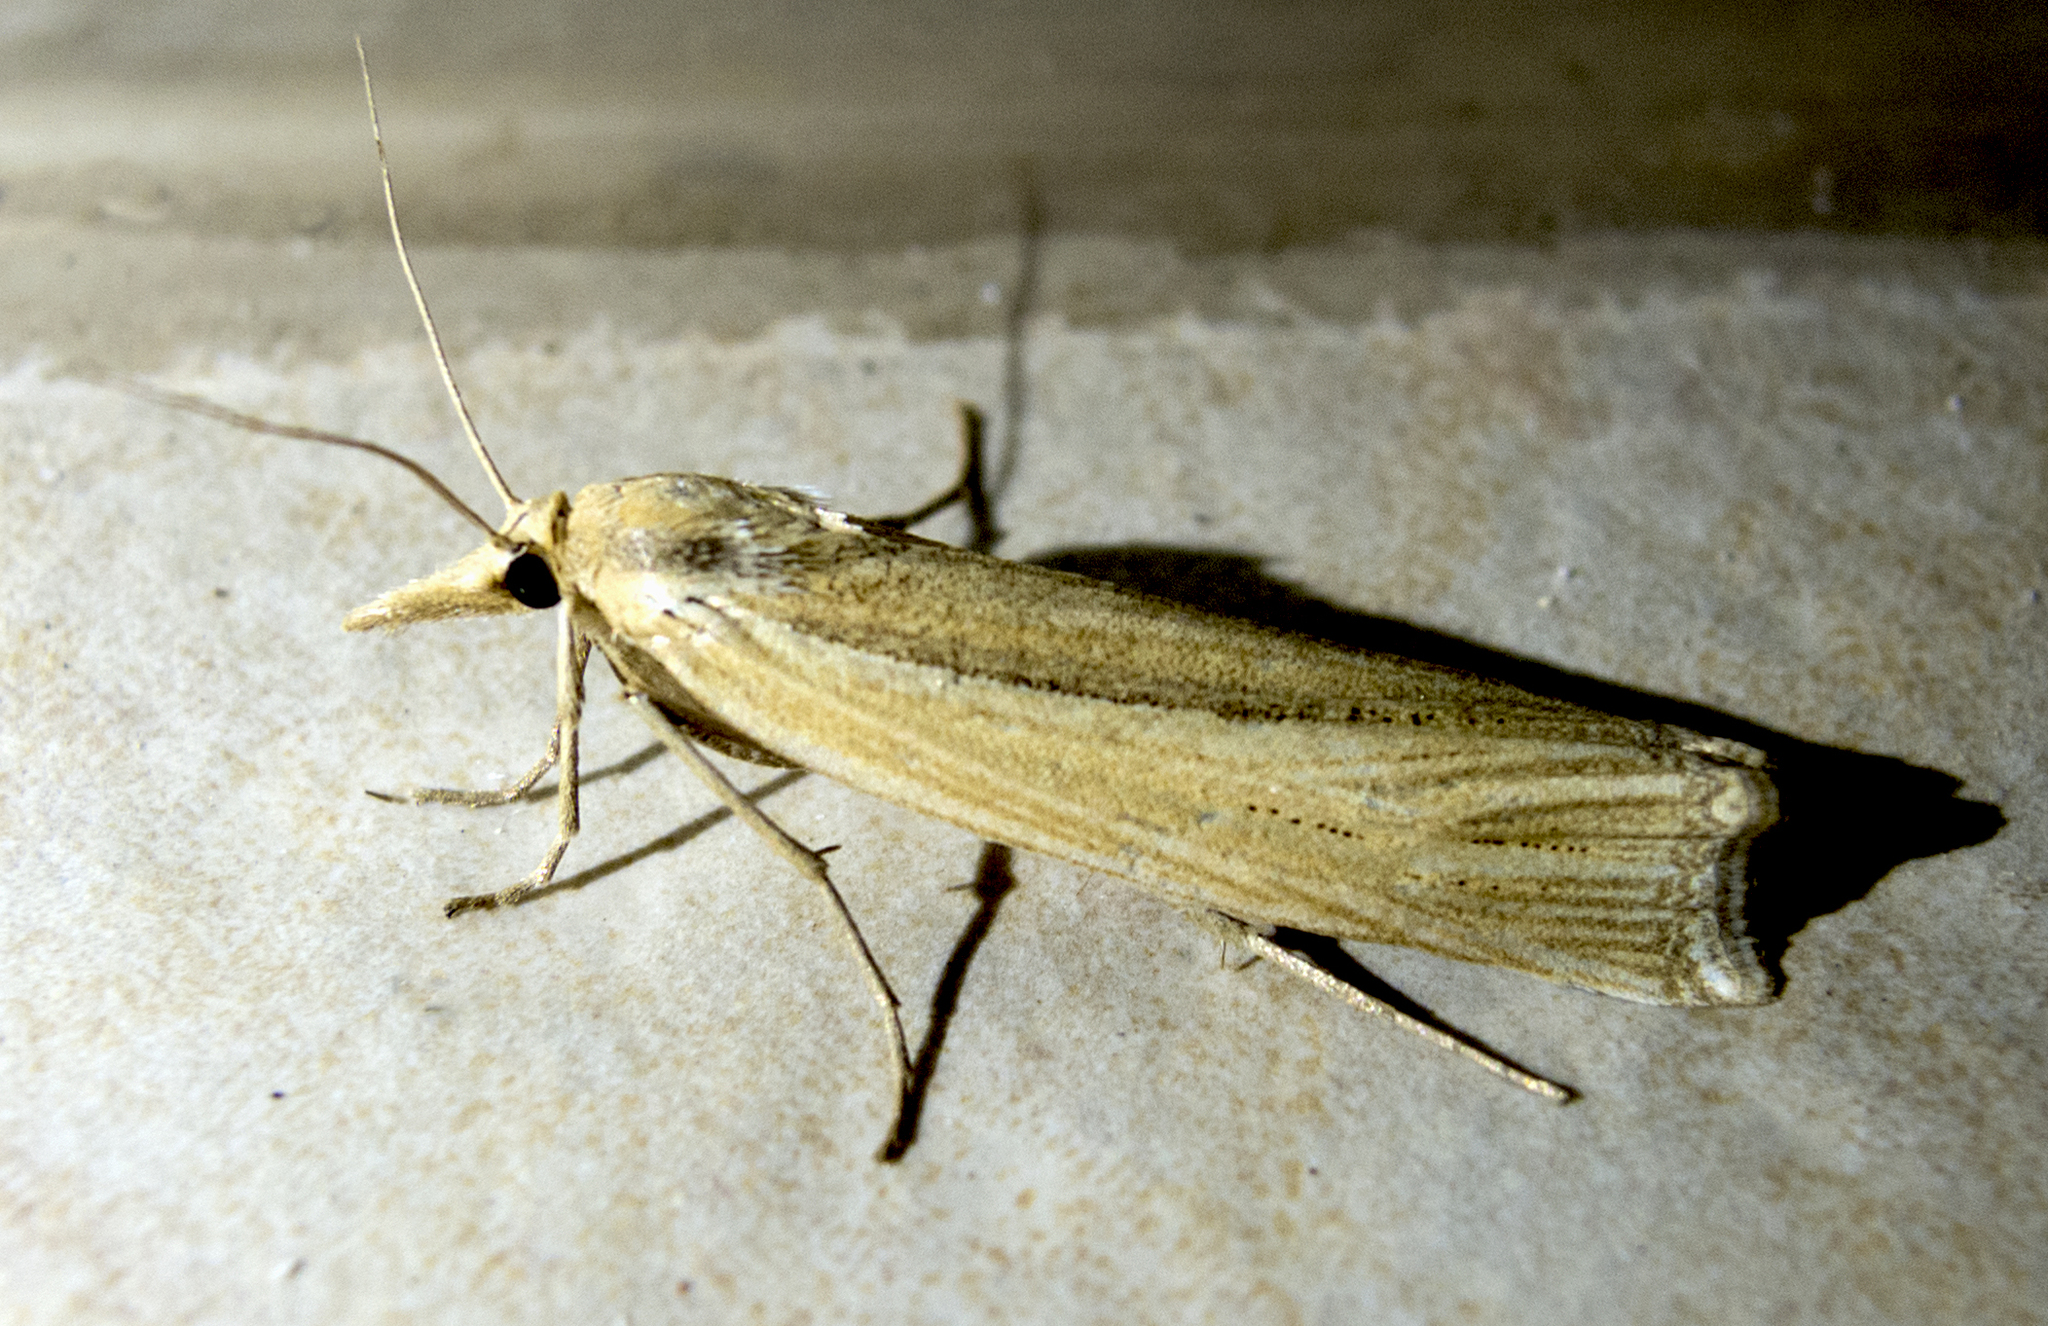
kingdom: Animalia
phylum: Arthropoda
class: Insecta
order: Lepidoptera
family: Crambidae
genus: Ancylolomia
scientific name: Ancylolomia
